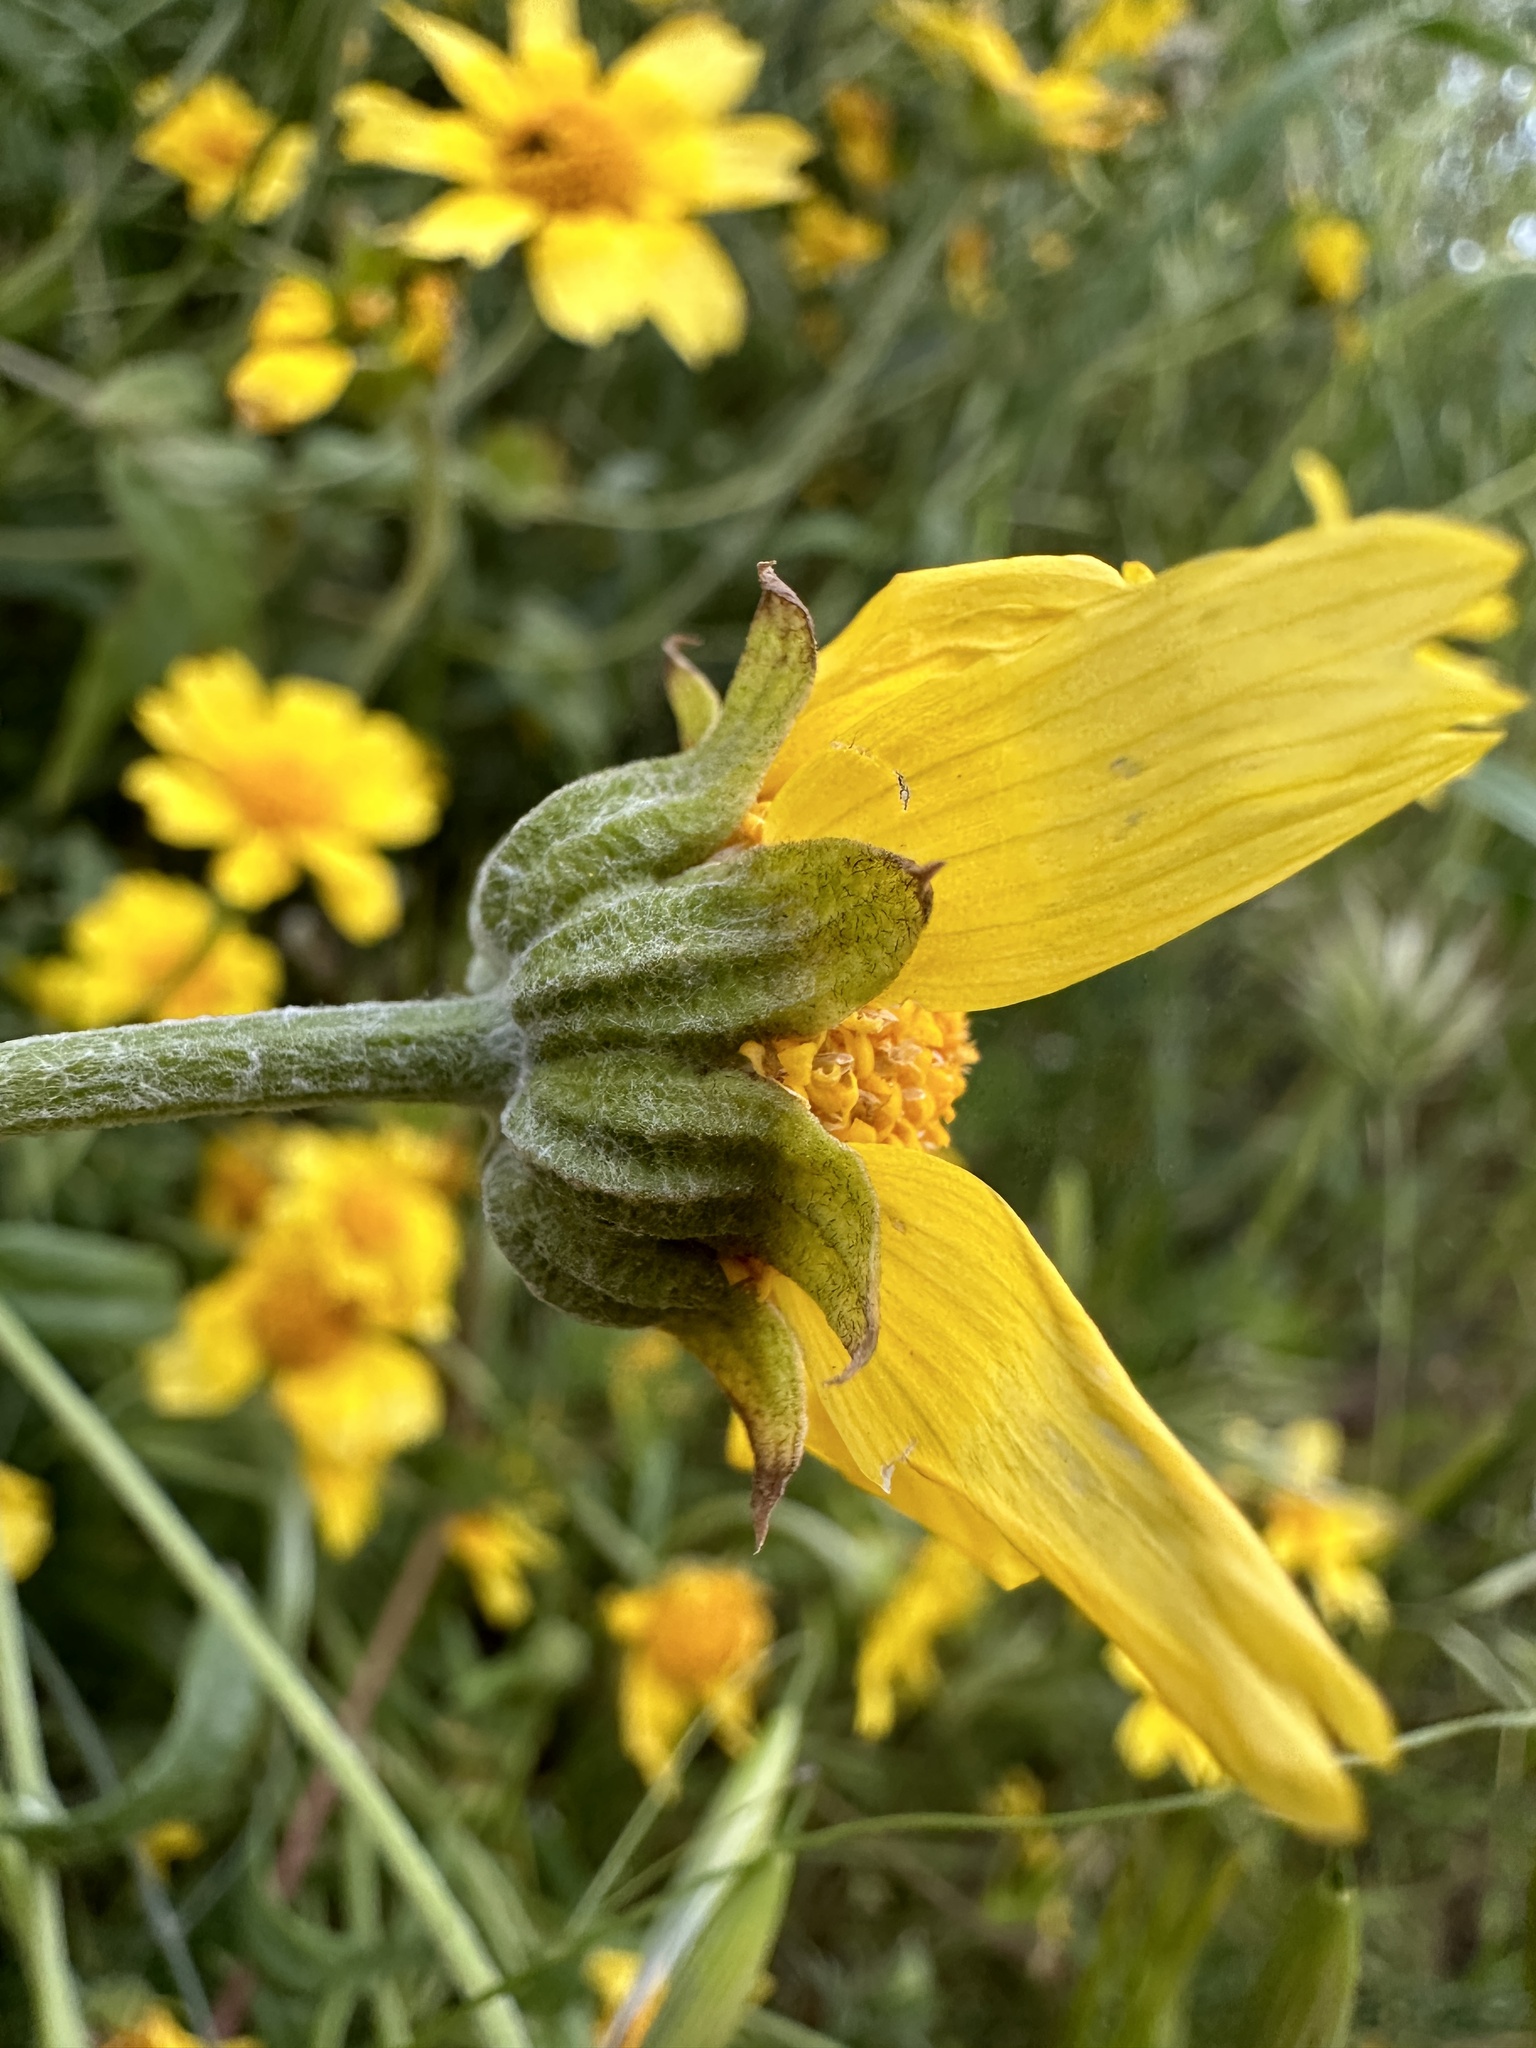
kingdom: Plantae
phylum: Tracheophyta
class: Magnoliopsida
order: Asterales
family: Asteraceae
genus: Monolopia
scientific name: Monolopia lanceolata
